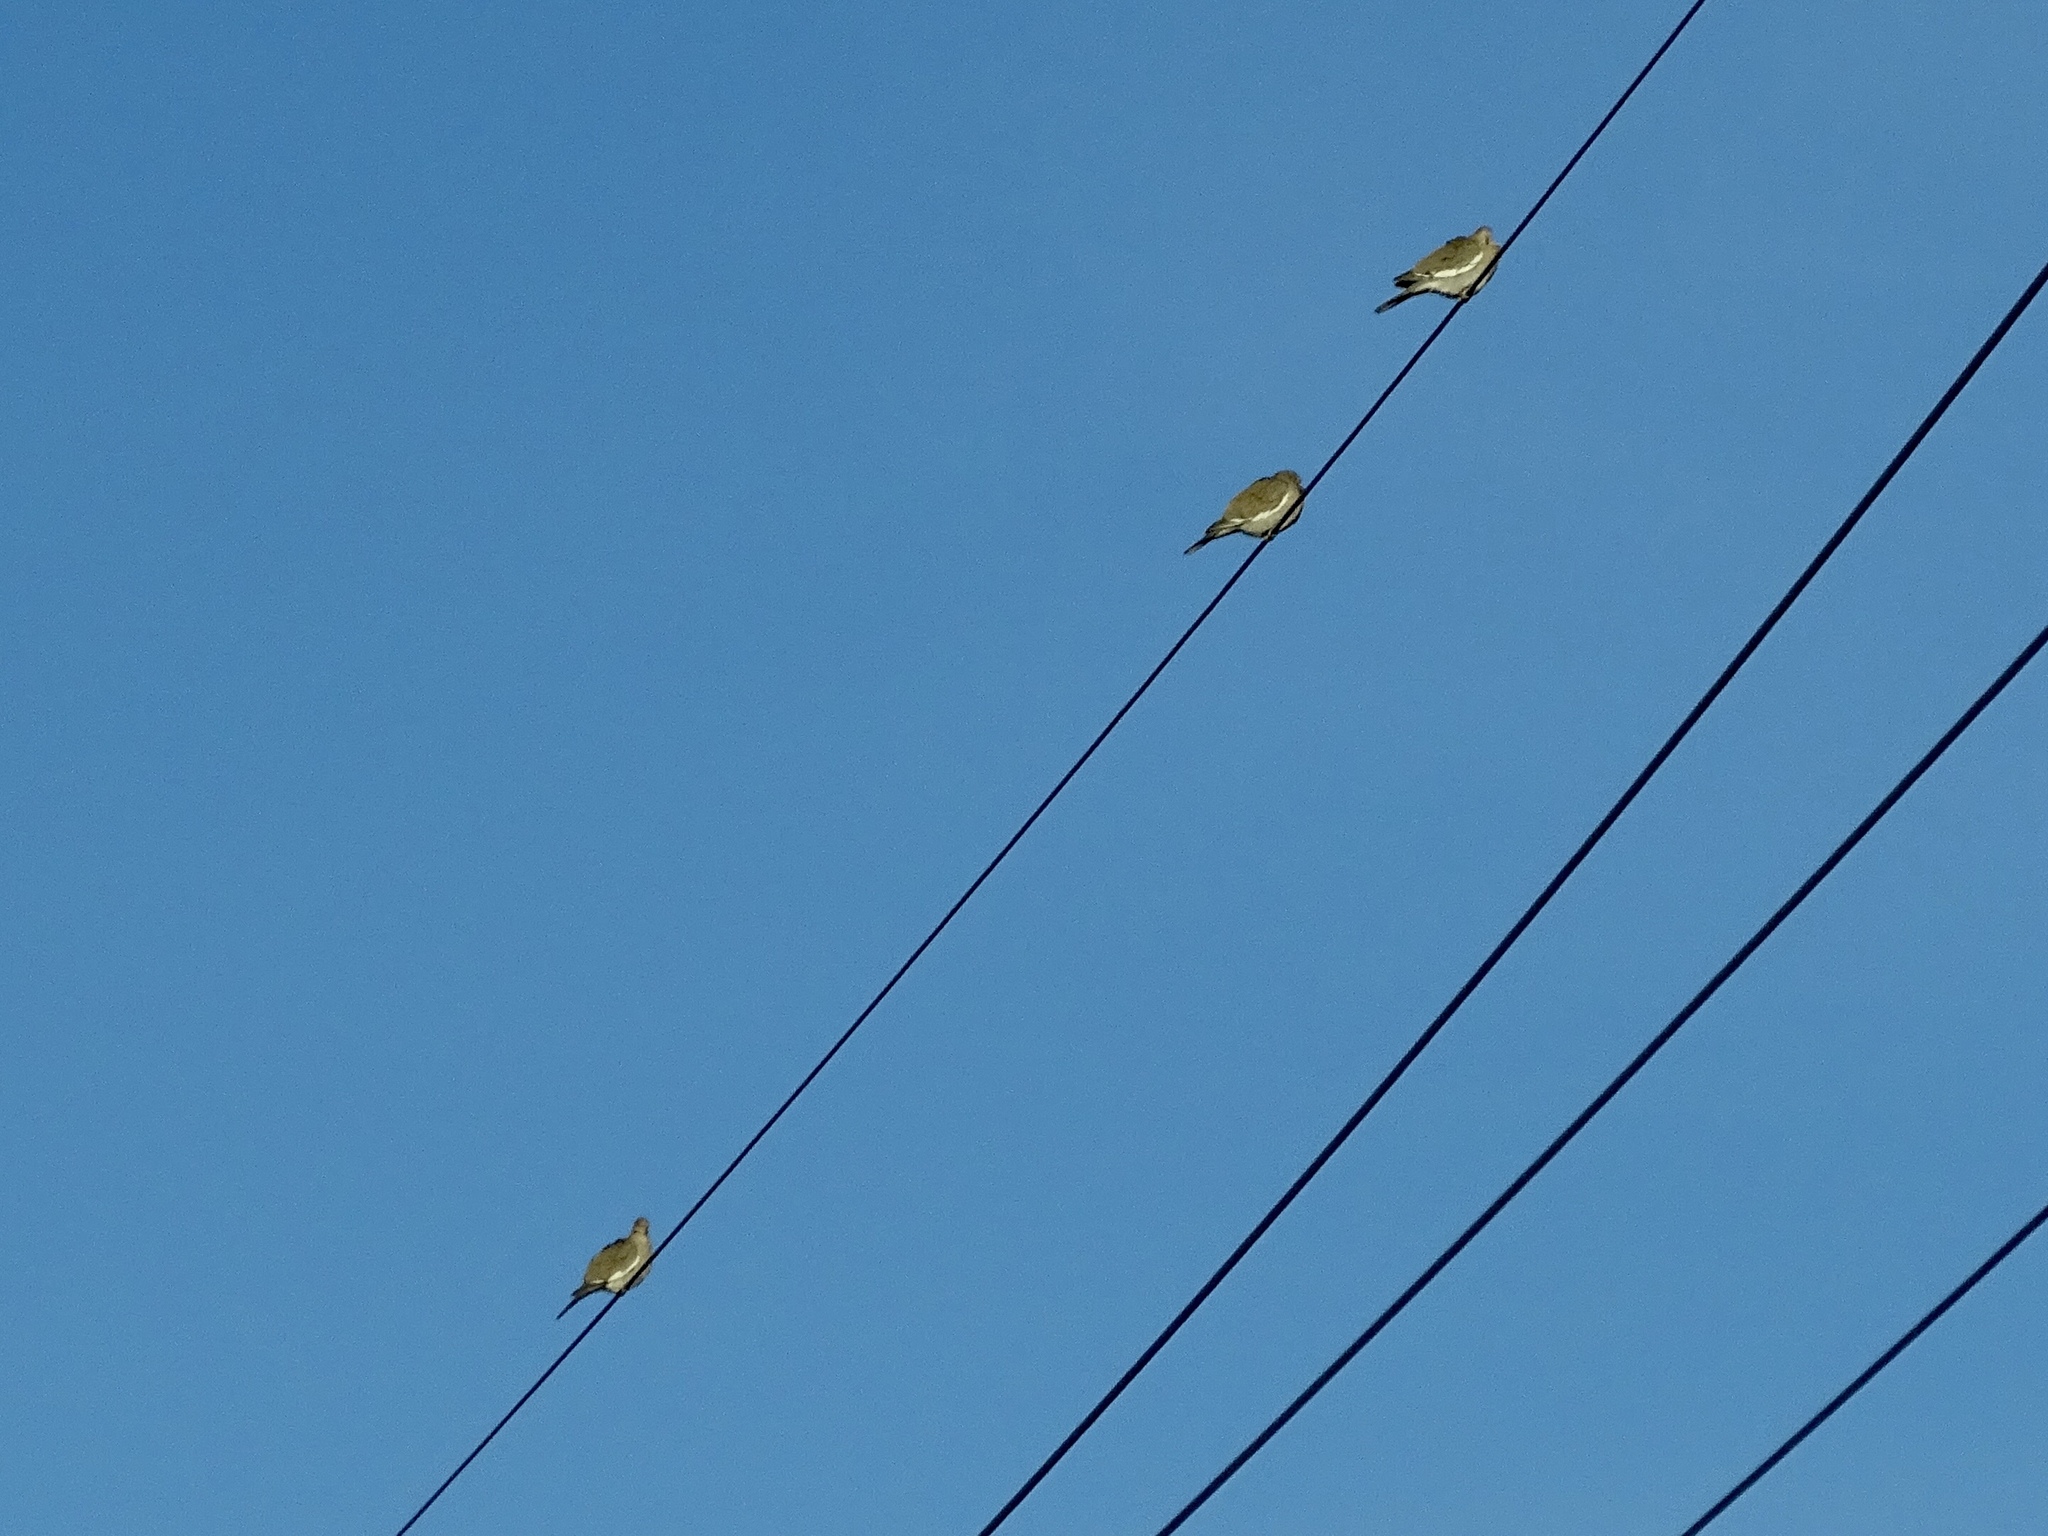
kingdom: Animalia
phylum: Chordata
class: Aves
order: Columbiformes
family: Columbidae
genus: Zenaida
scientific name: Zenaida asiatica
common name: White-winged dove
